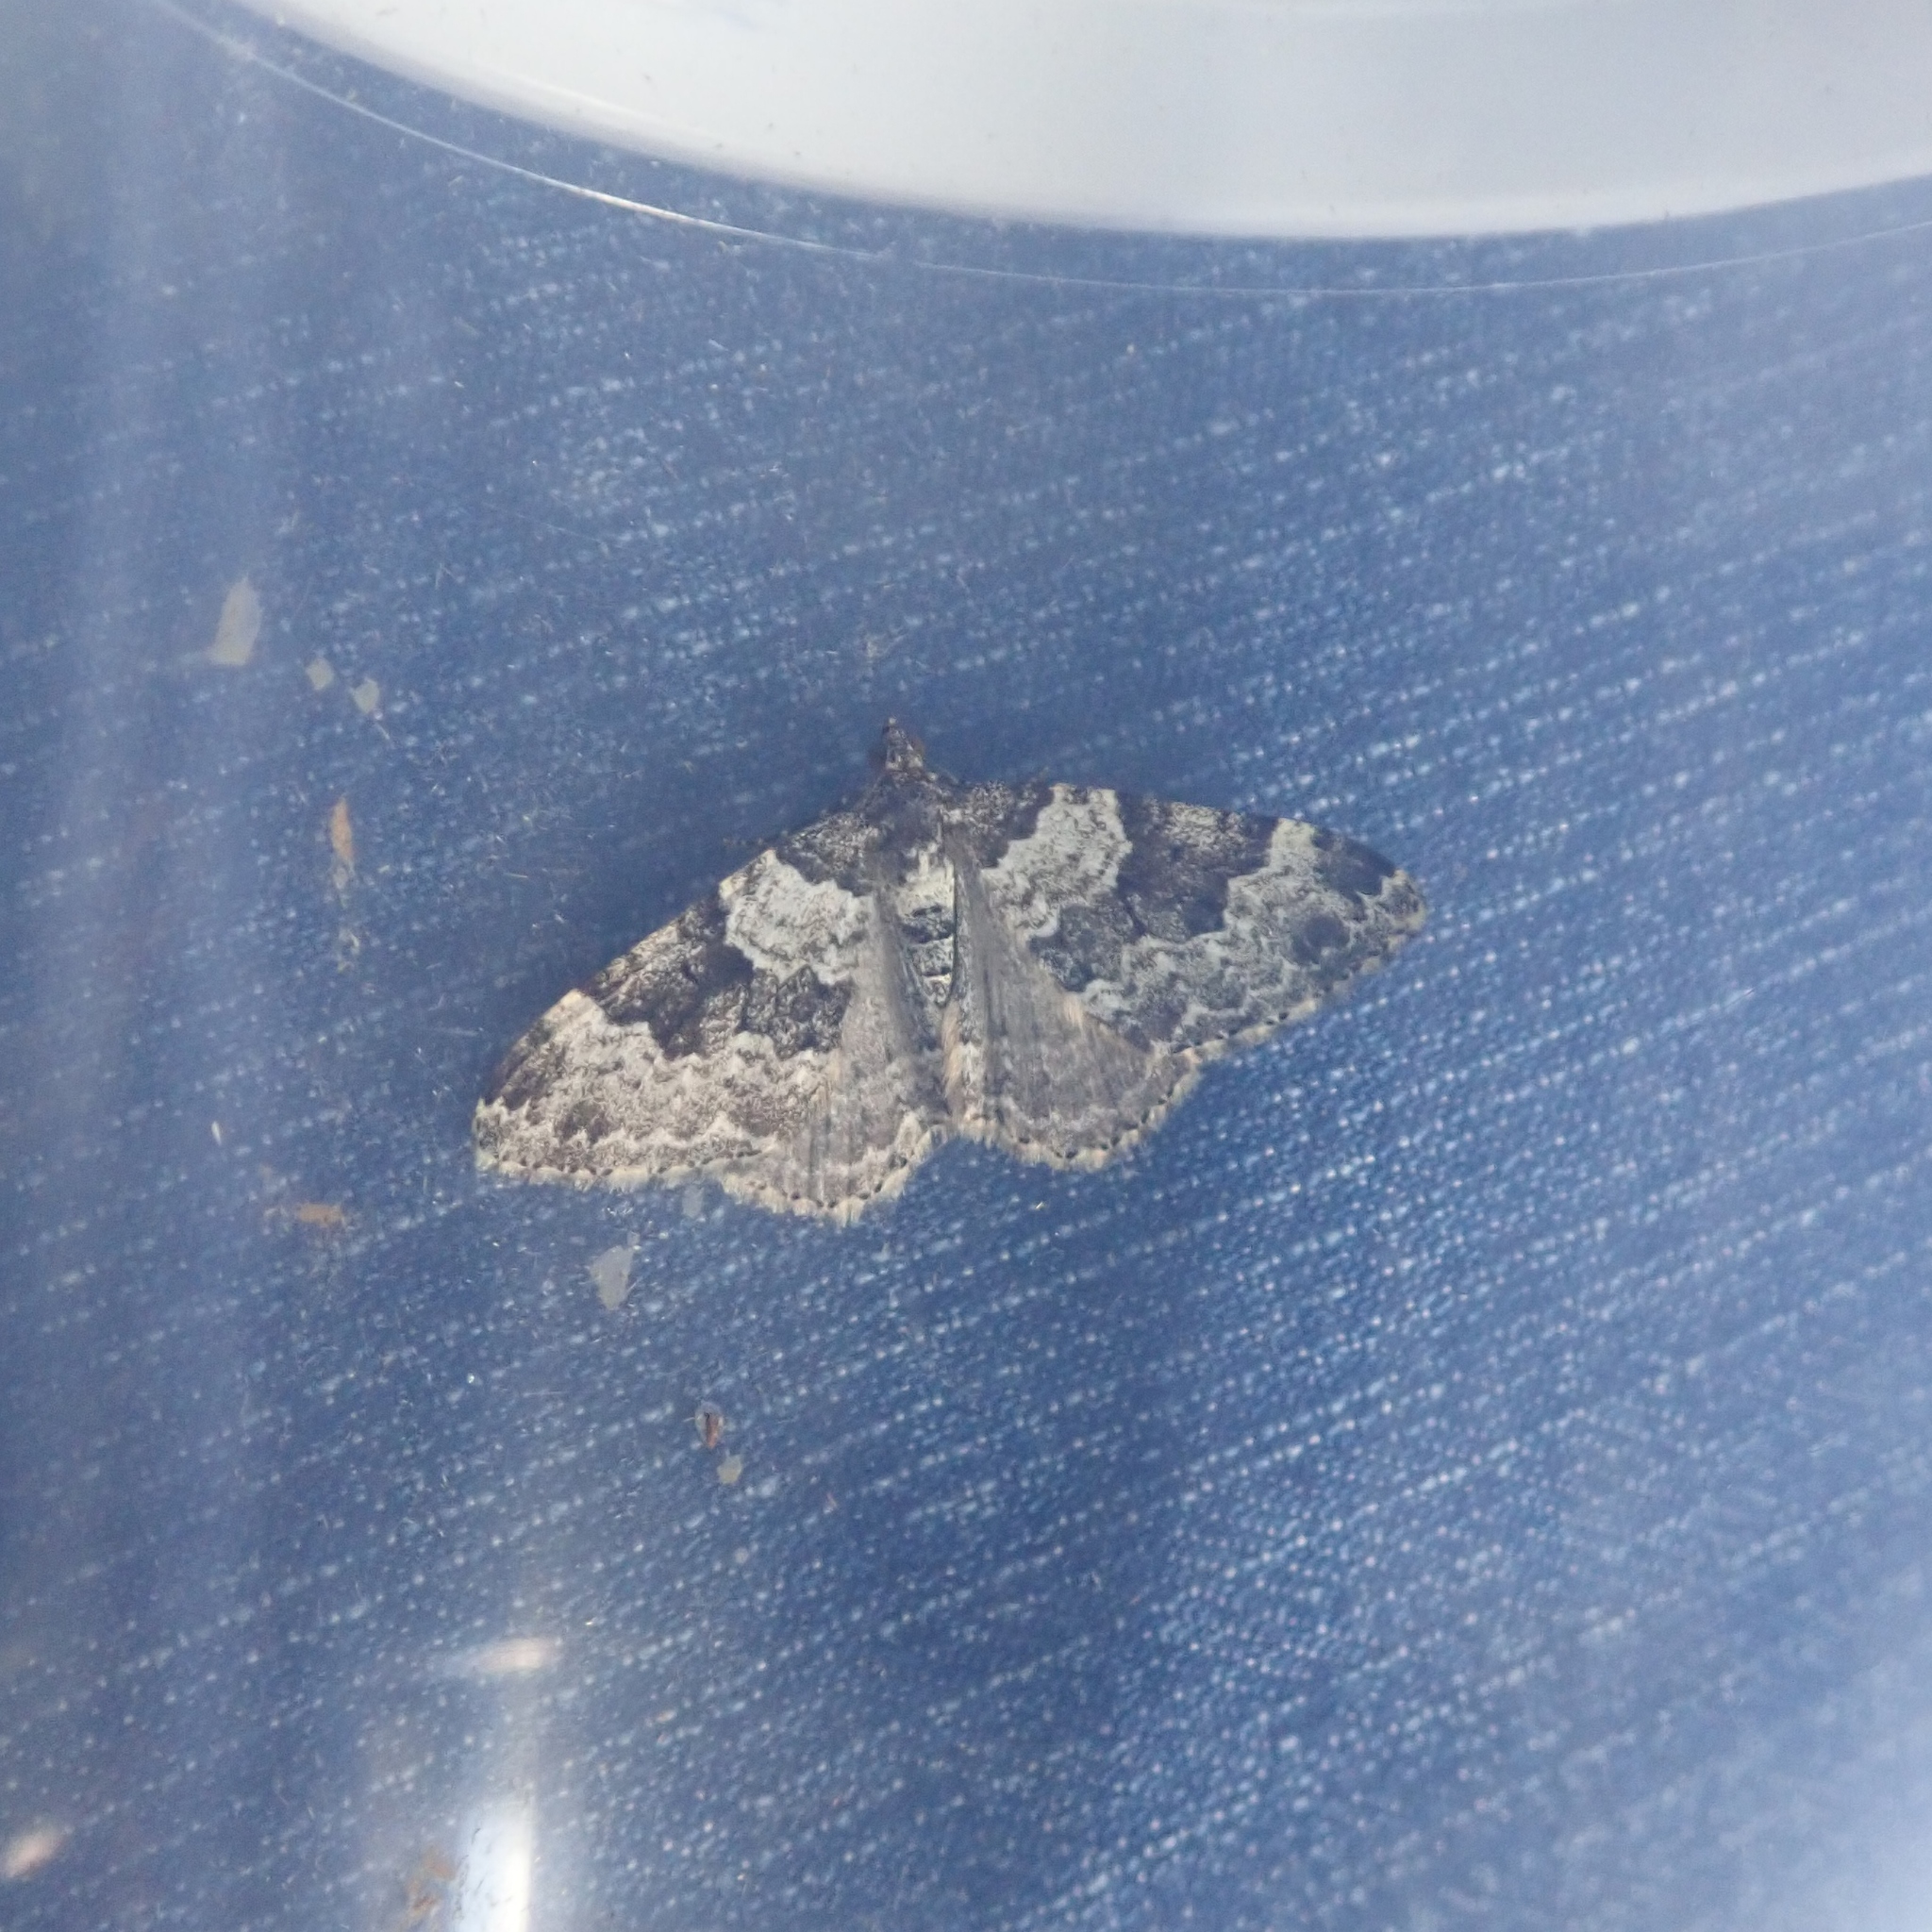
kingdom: Animalia
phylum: Arthropoda
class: Insecta
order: Lepidoptera
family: Geometridae
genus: Xanthorhoe
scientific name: Xanthorhoe fluctuata
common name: Garden carpet
